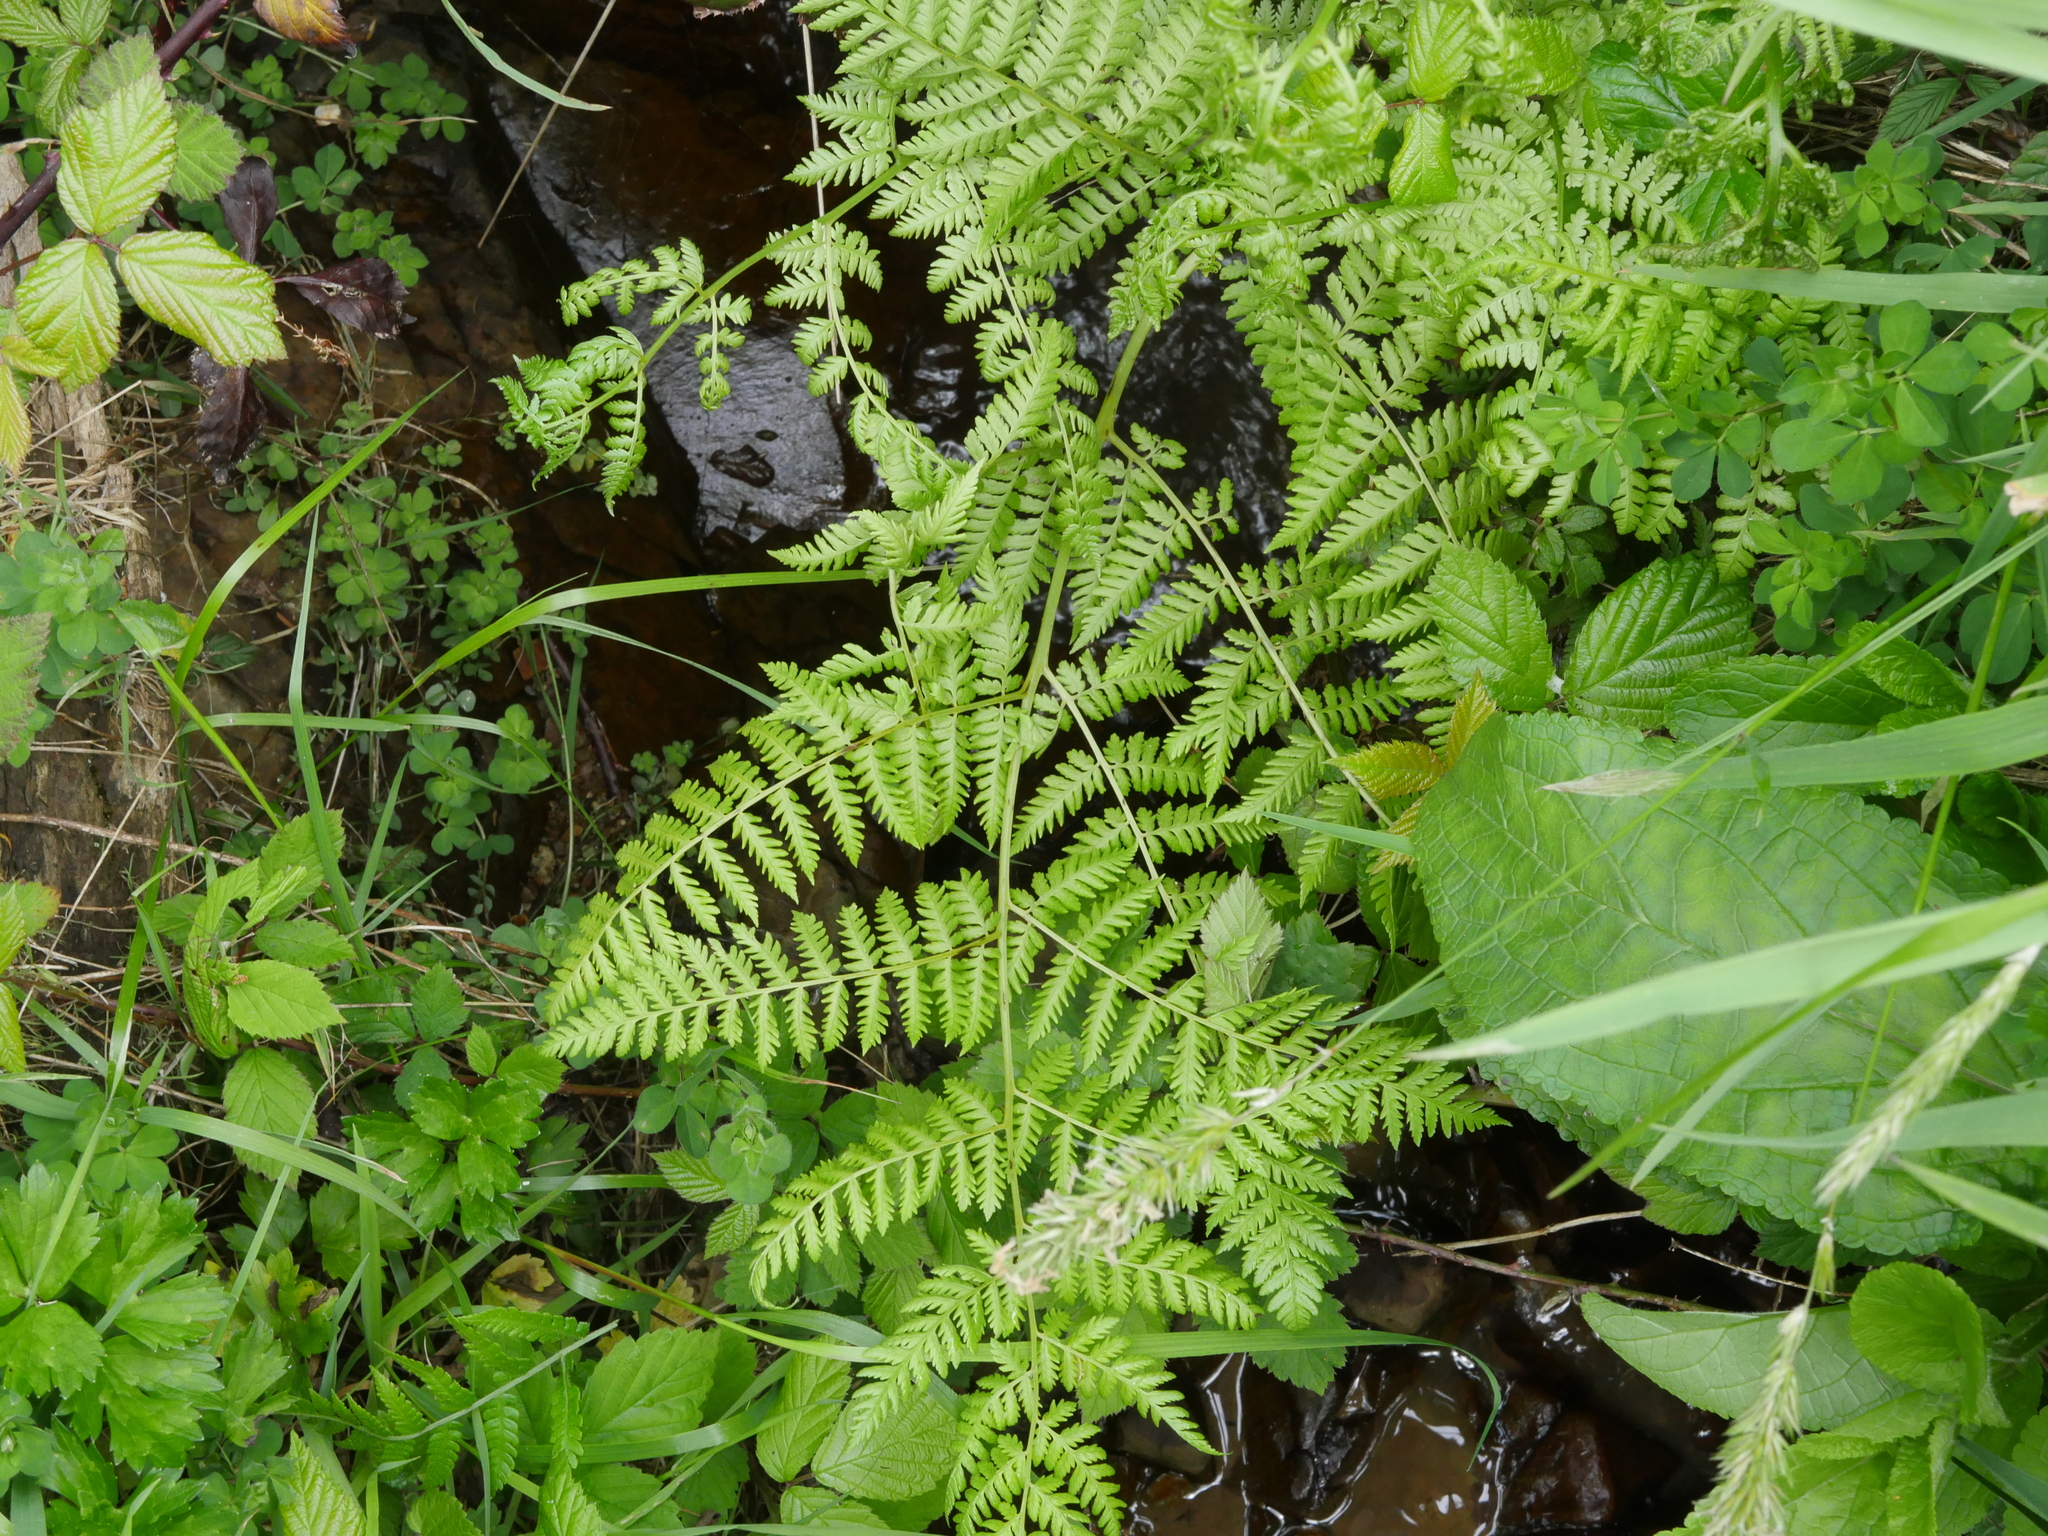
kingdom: Plantae
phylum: Tracheophyta
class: Polypodiopsida
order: Polypodiales
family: Athyriaceae
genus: Diplazium
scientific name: Diplazium australe
